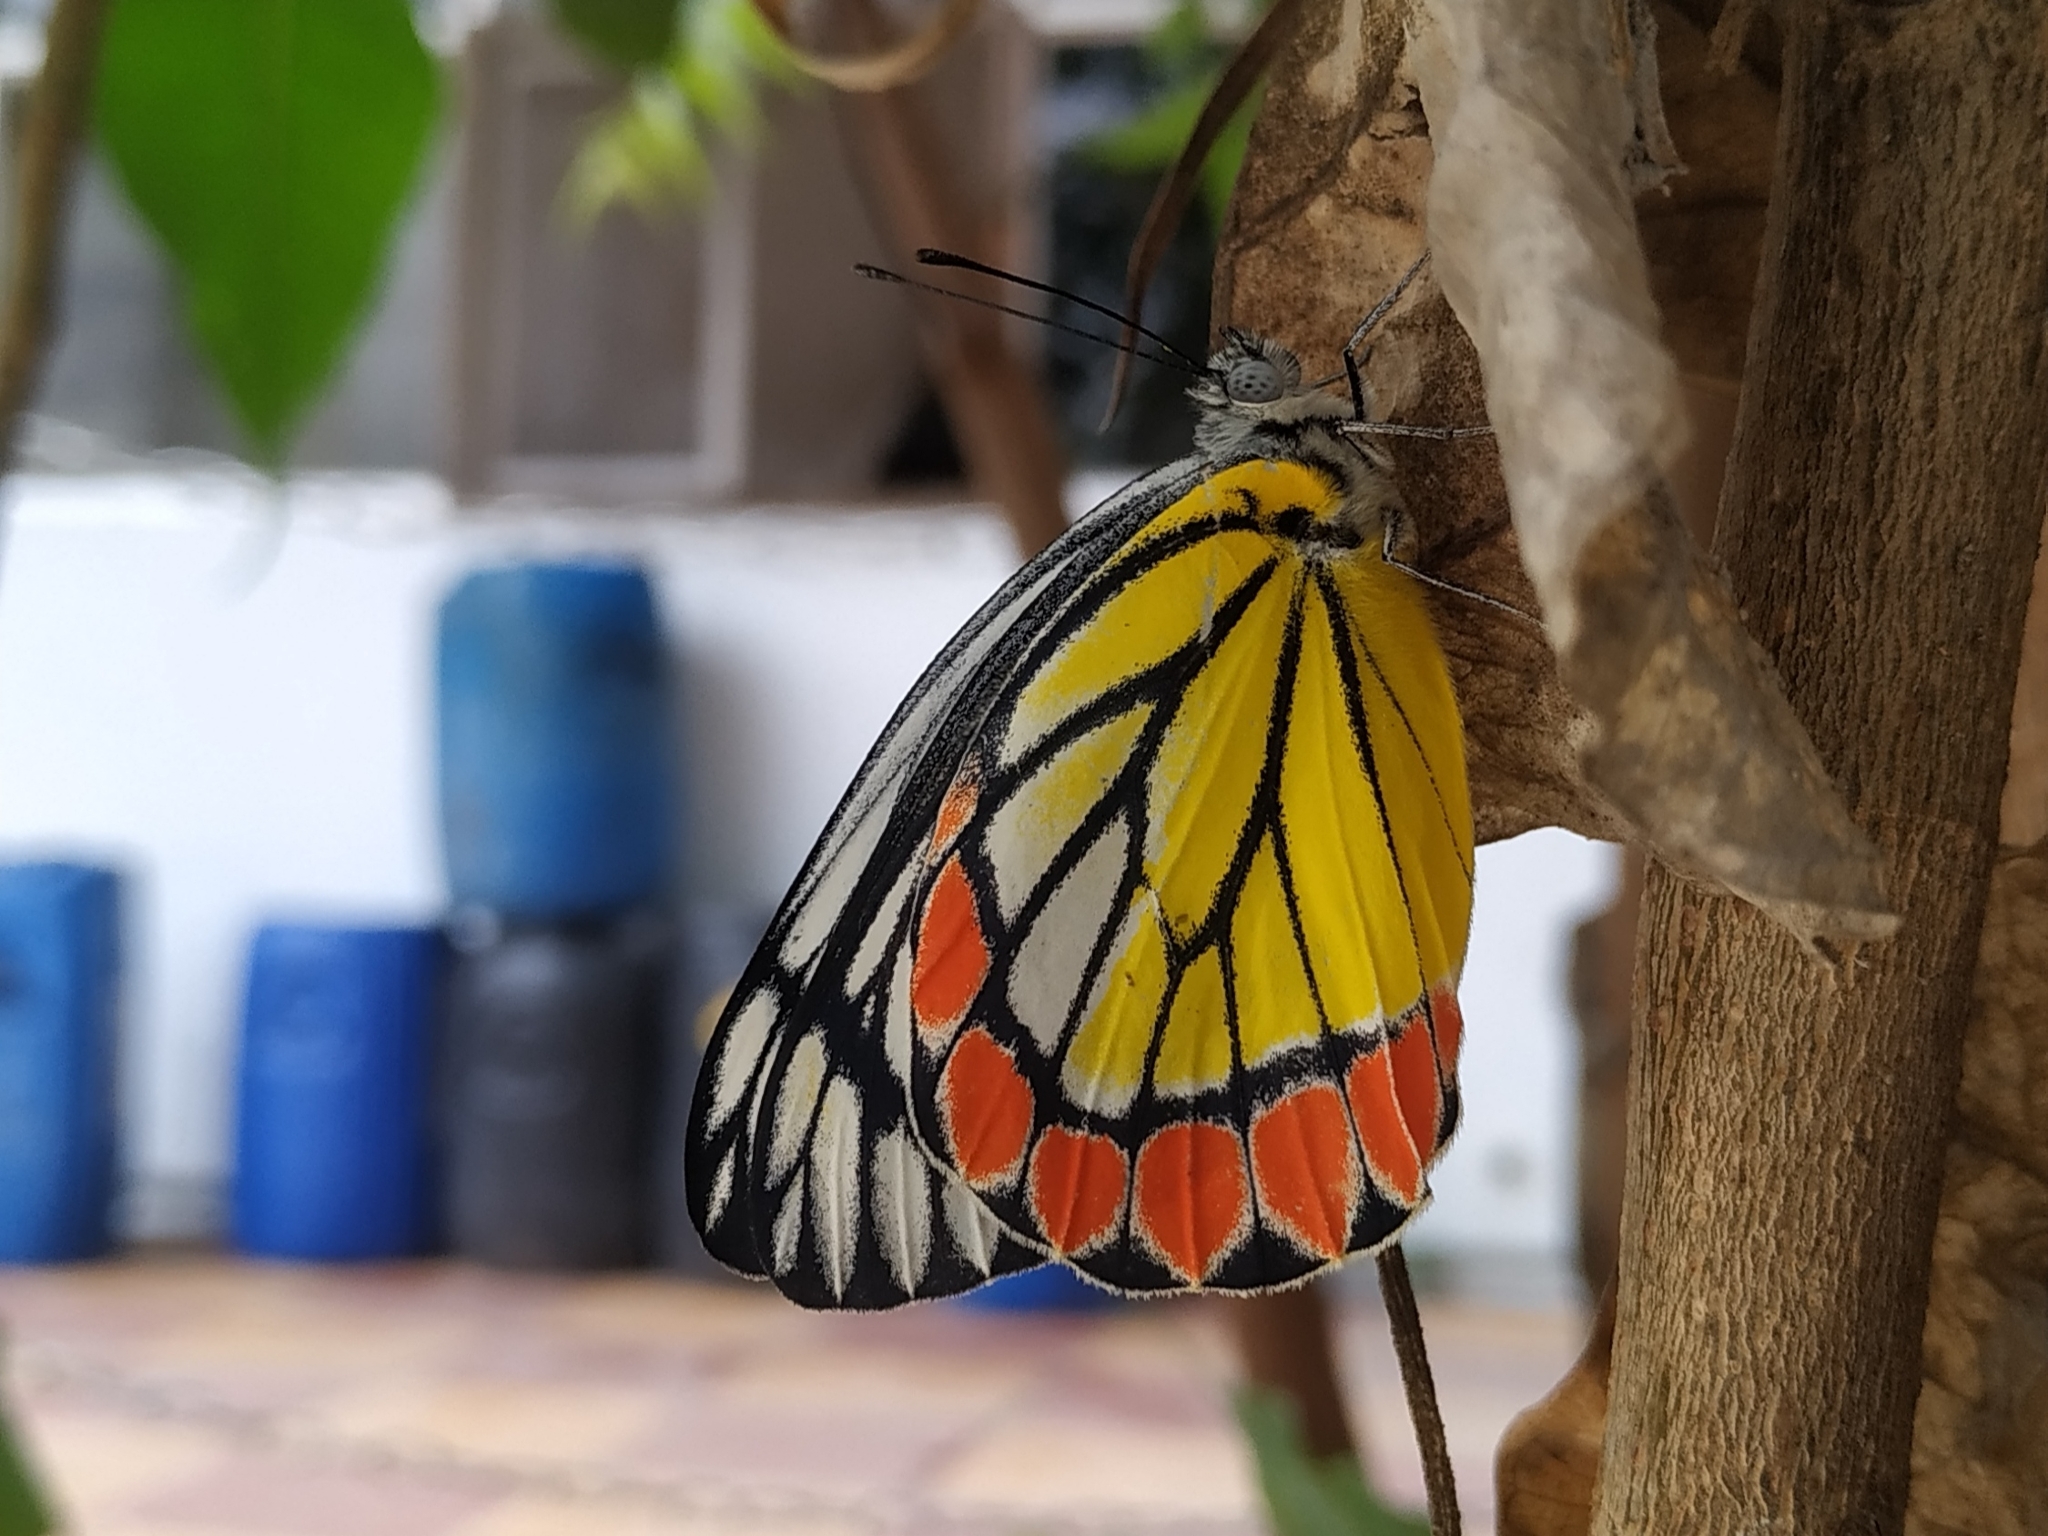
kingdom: Animalia
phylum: Arthropoda
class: Insecta
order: Lepidoptera
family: Pieridae
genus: Delias
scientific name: Delias eucharis
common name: Common jezebel
